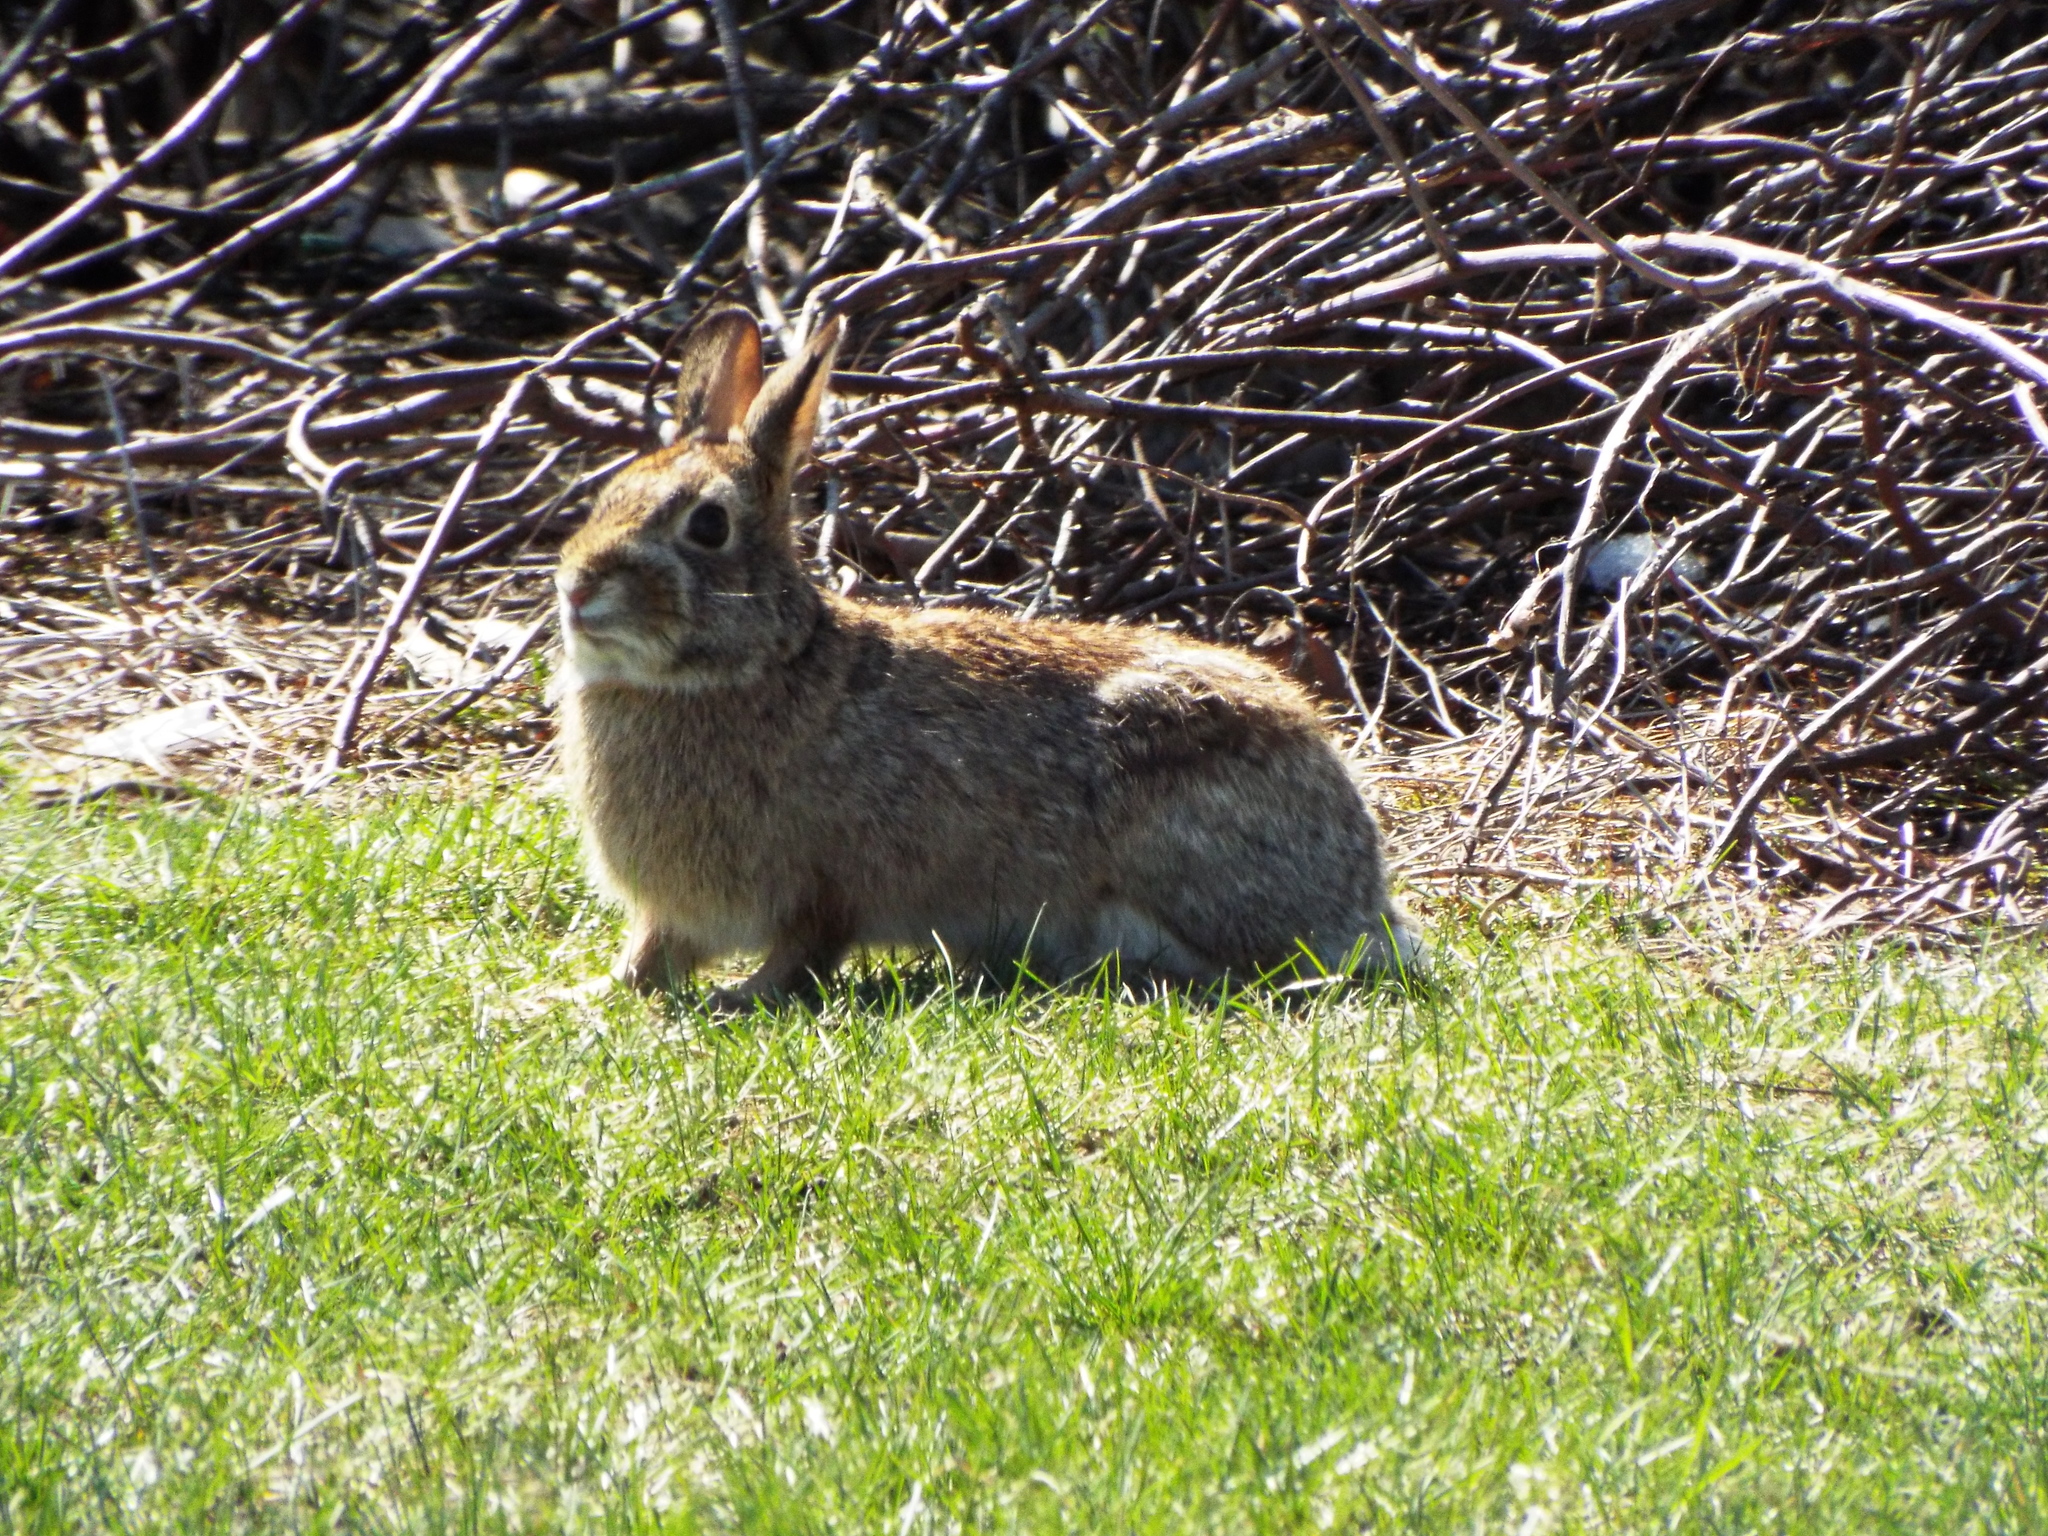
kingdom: Animalia
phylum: Chordata
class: Mammalia
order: Lagomorpha
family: Leporidae
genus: Sylvilagus
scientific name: Sylvilagus floridanus
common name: Eastern cottontail
